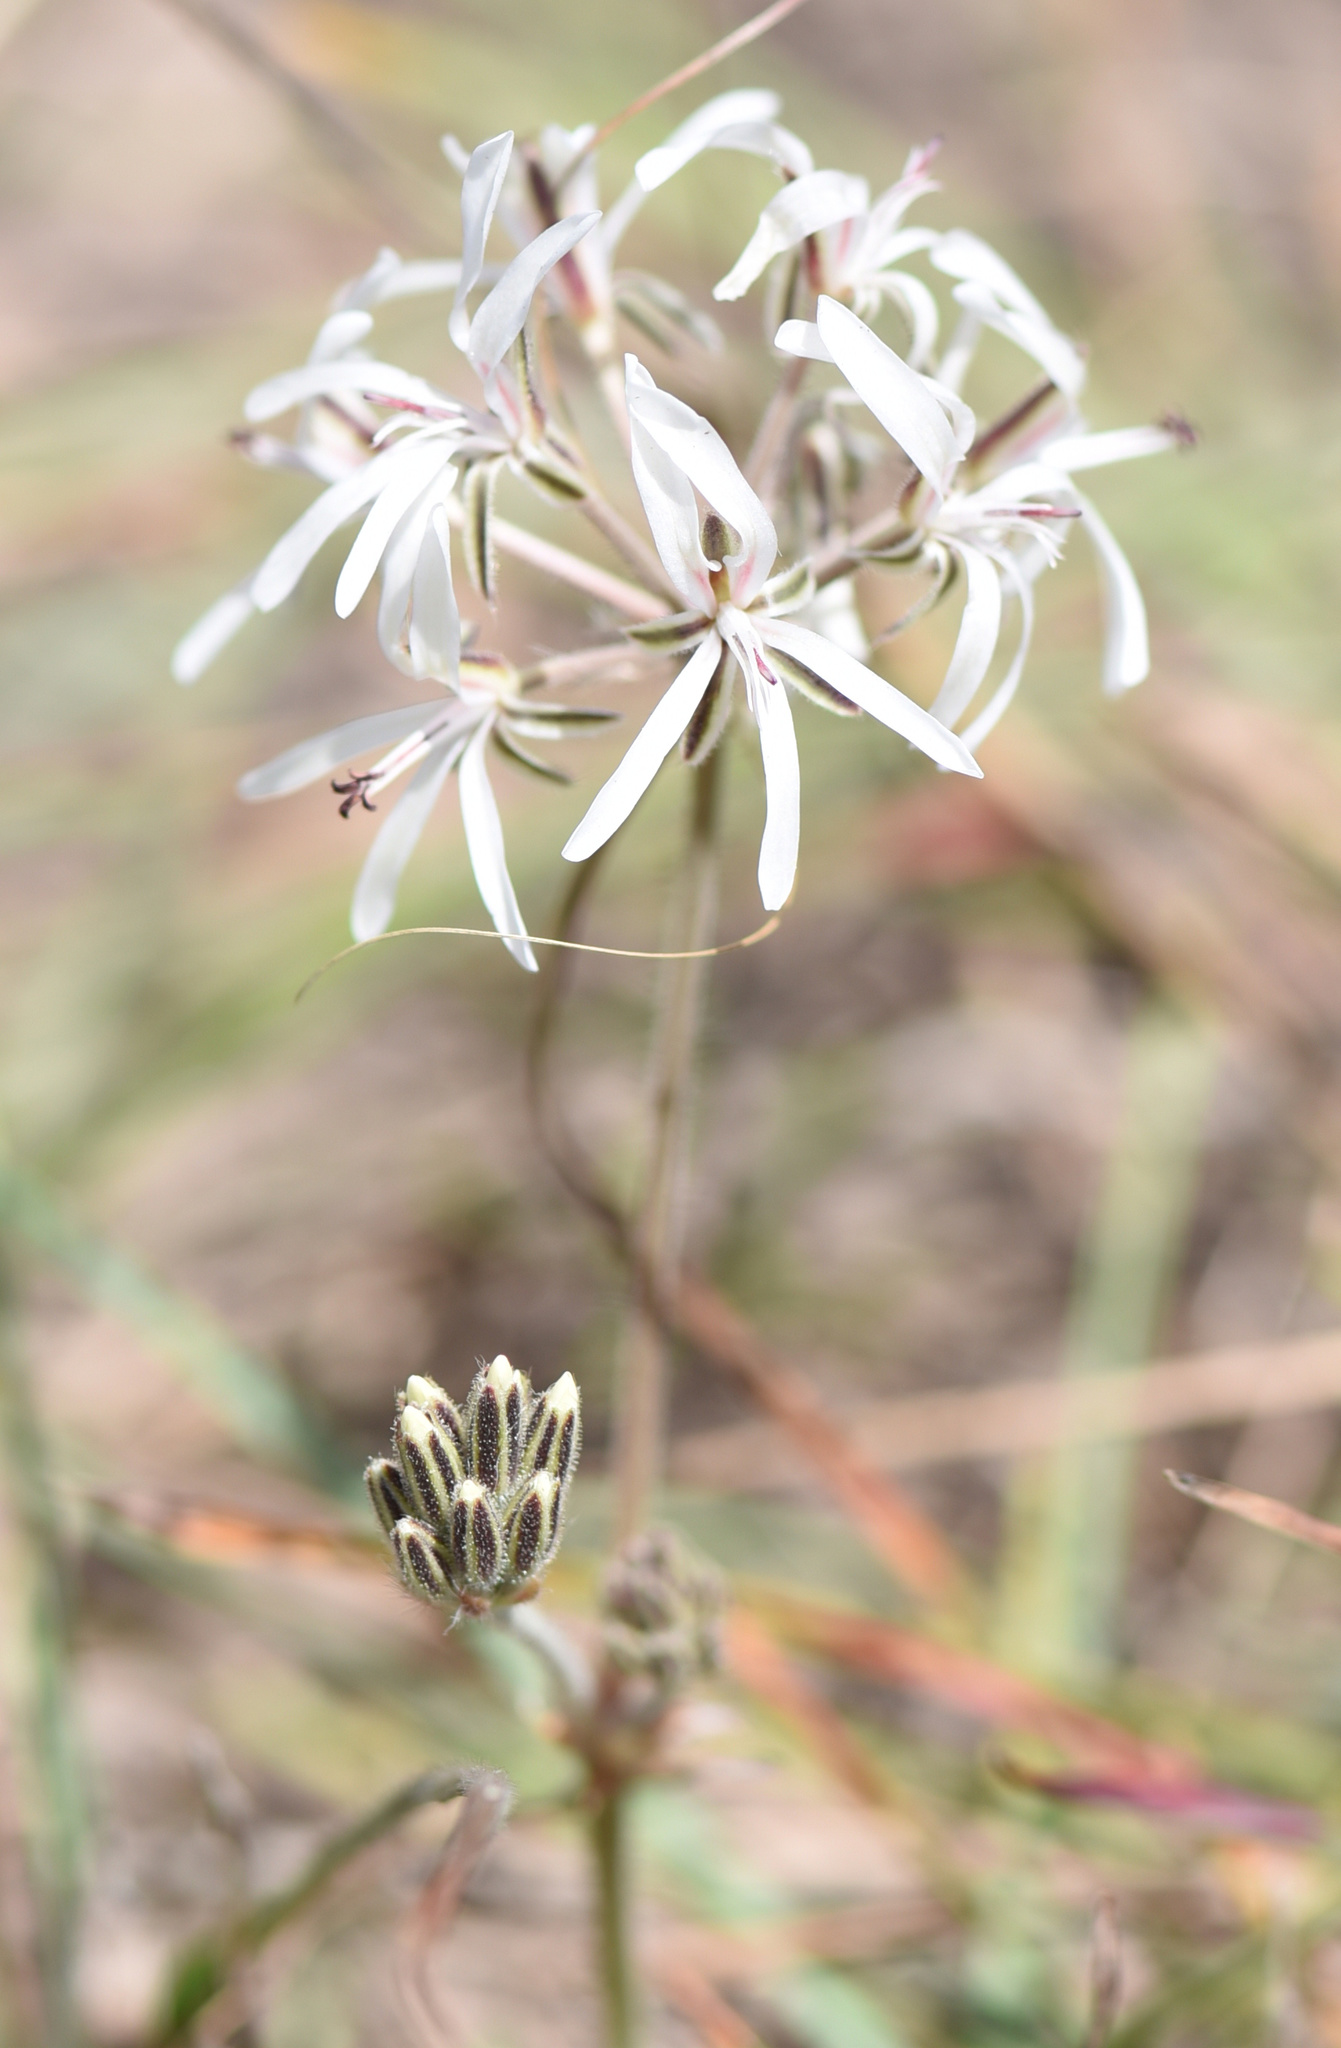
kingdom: Plantae
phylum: Tracheophyta
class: Magnoliopsida
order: Geraniales
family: Geraniaceae
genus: Pelargonium
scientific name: Pelargonium auritum
